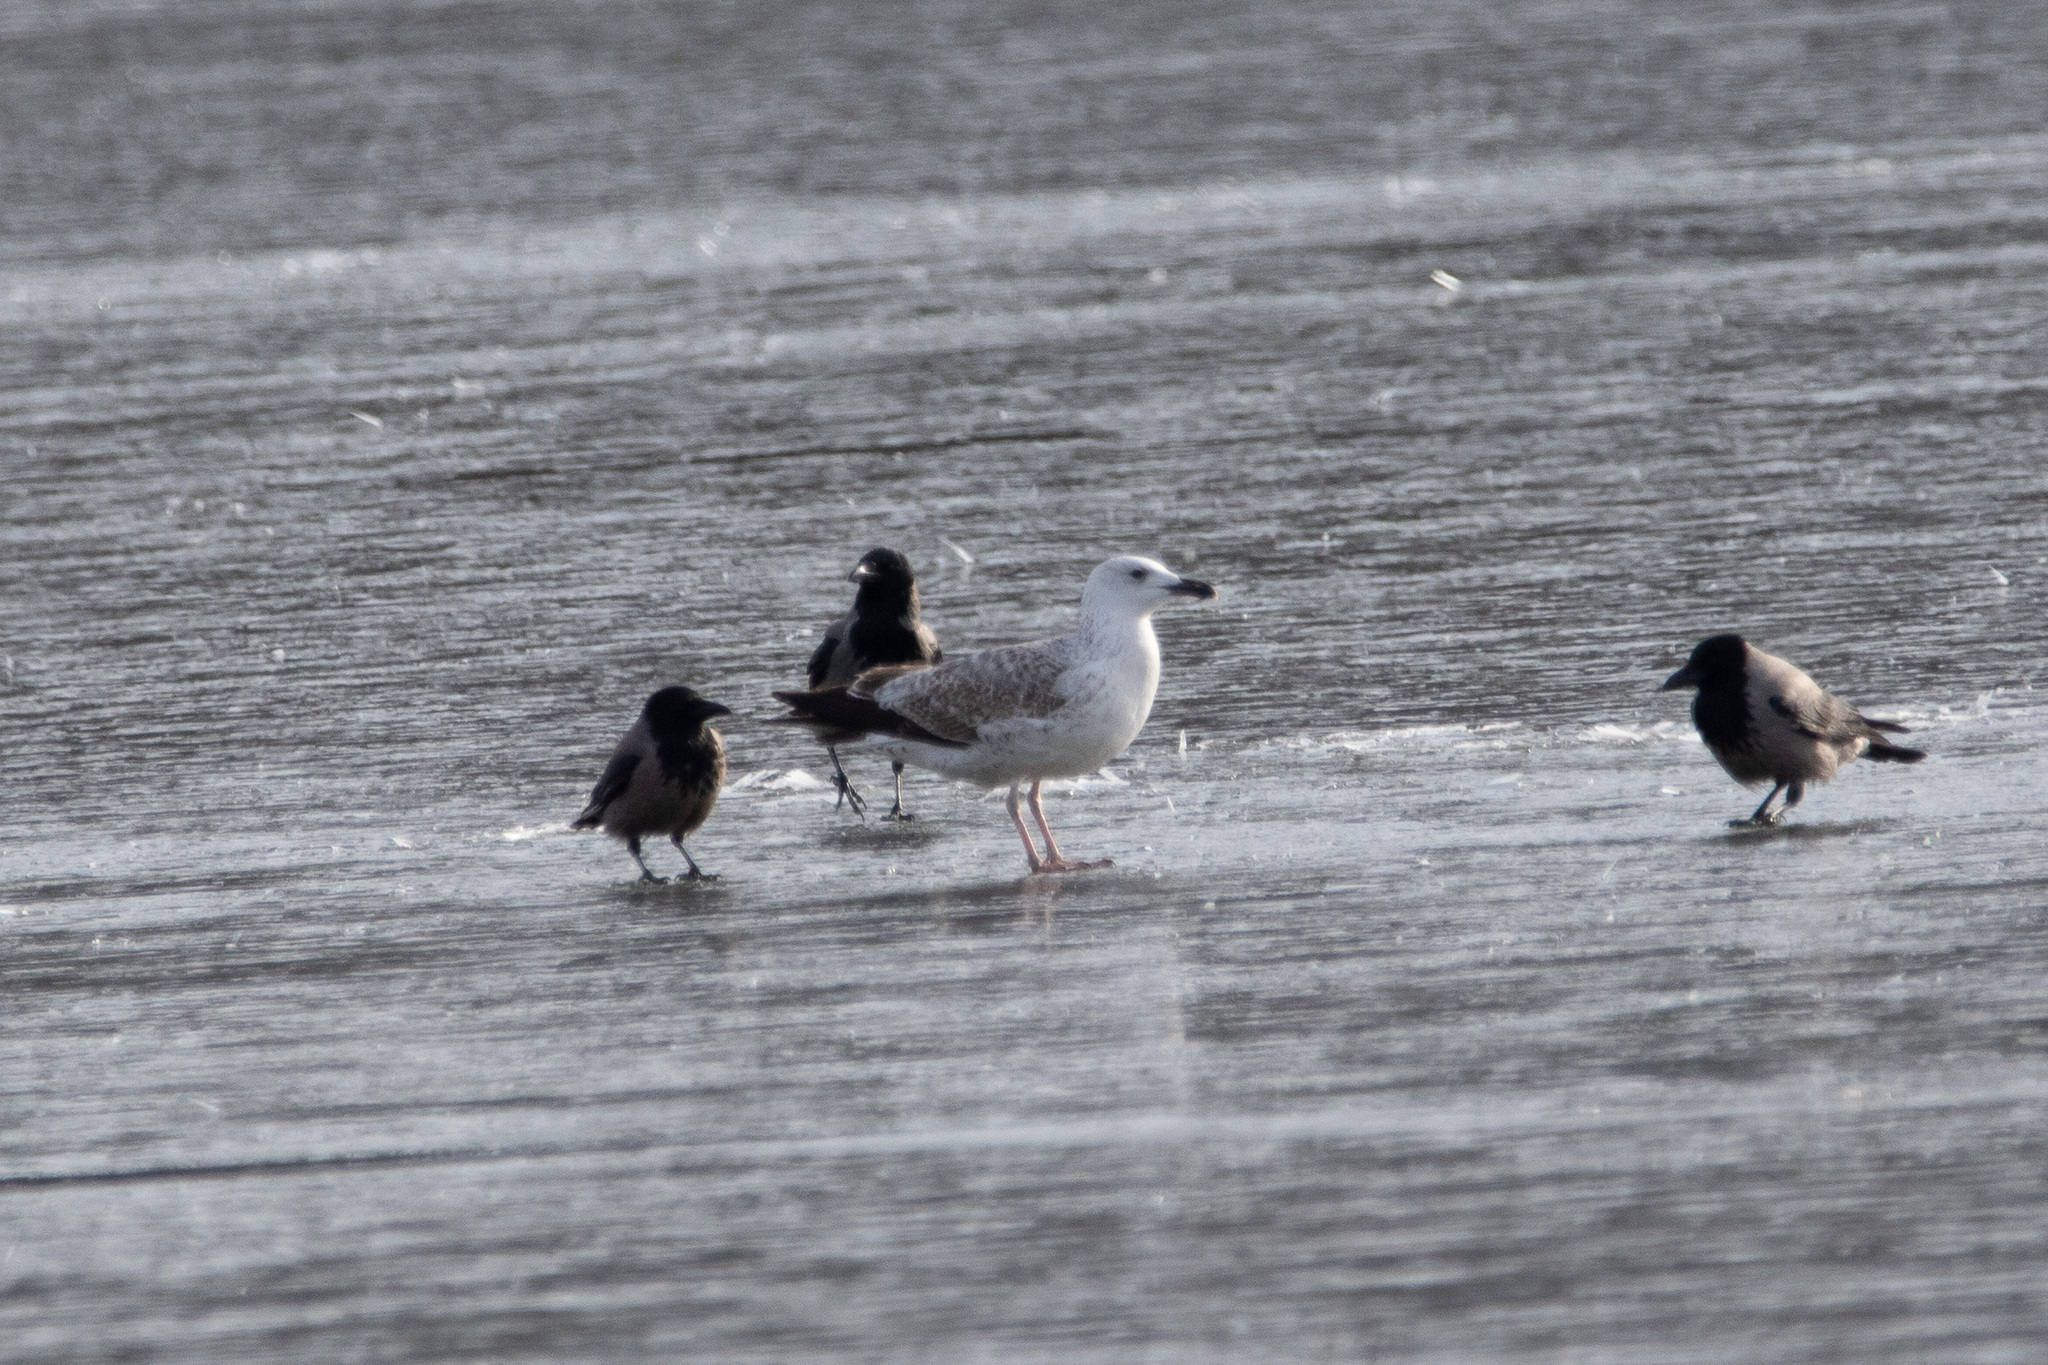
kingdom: Animalia
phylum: Chordata
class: Aves
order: Charadriiformes
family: Laridae
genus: Larus
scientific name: Larus argentatus
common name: Herring gull
